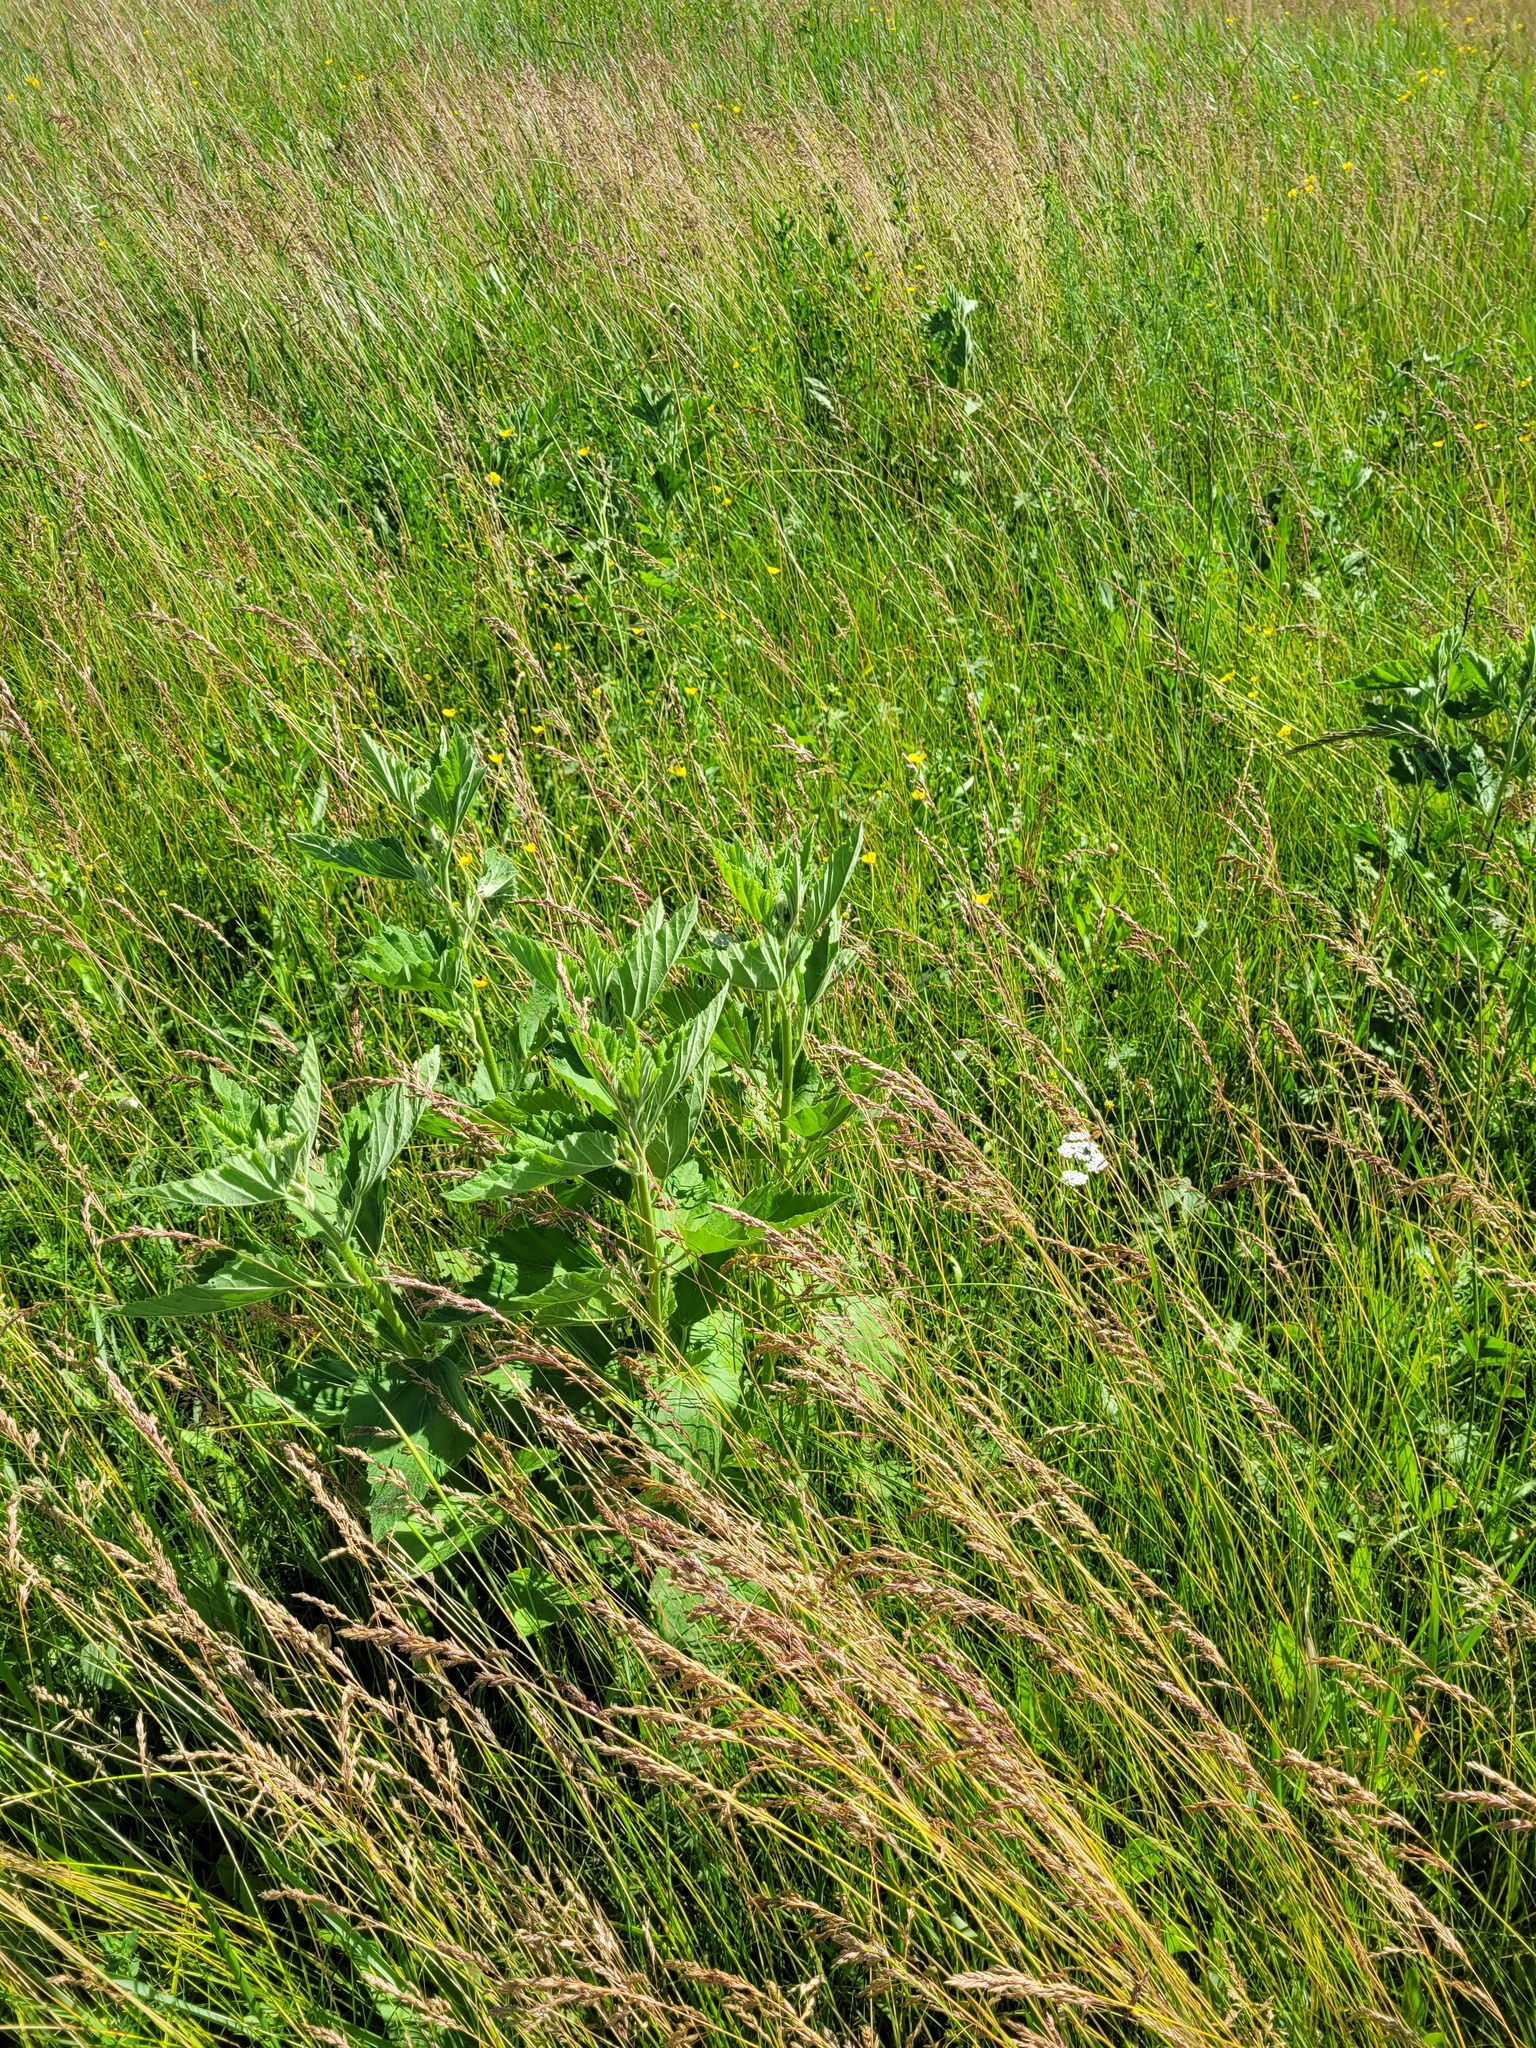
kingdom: Plantae
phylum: Tracheophyta
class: Magnoliopsida
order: Malvales
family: Malvaceae
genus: Althaea
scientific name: Althaea officinalis
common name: Marsh-mallow
